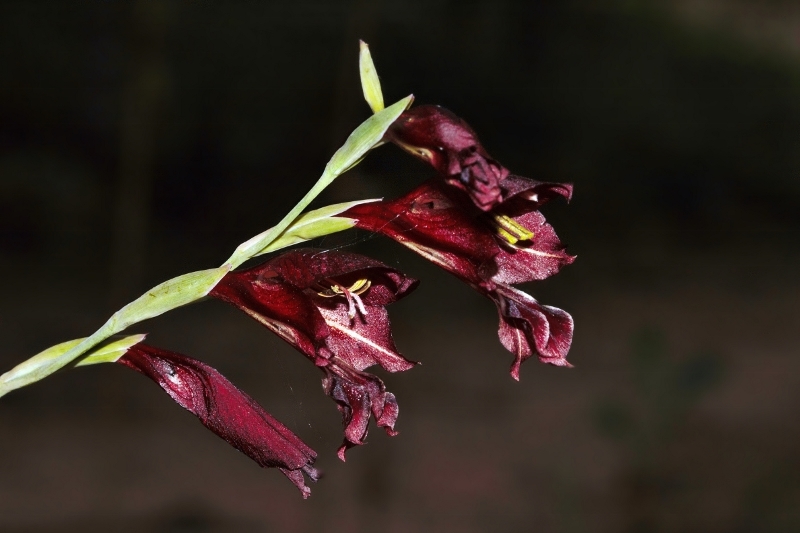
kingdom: Plantae
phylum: Tracheophyta
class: Liliopsida
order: Asparagales
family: Iridaceae
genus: Gladiolus
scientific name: Gladiolus atropurpureus
